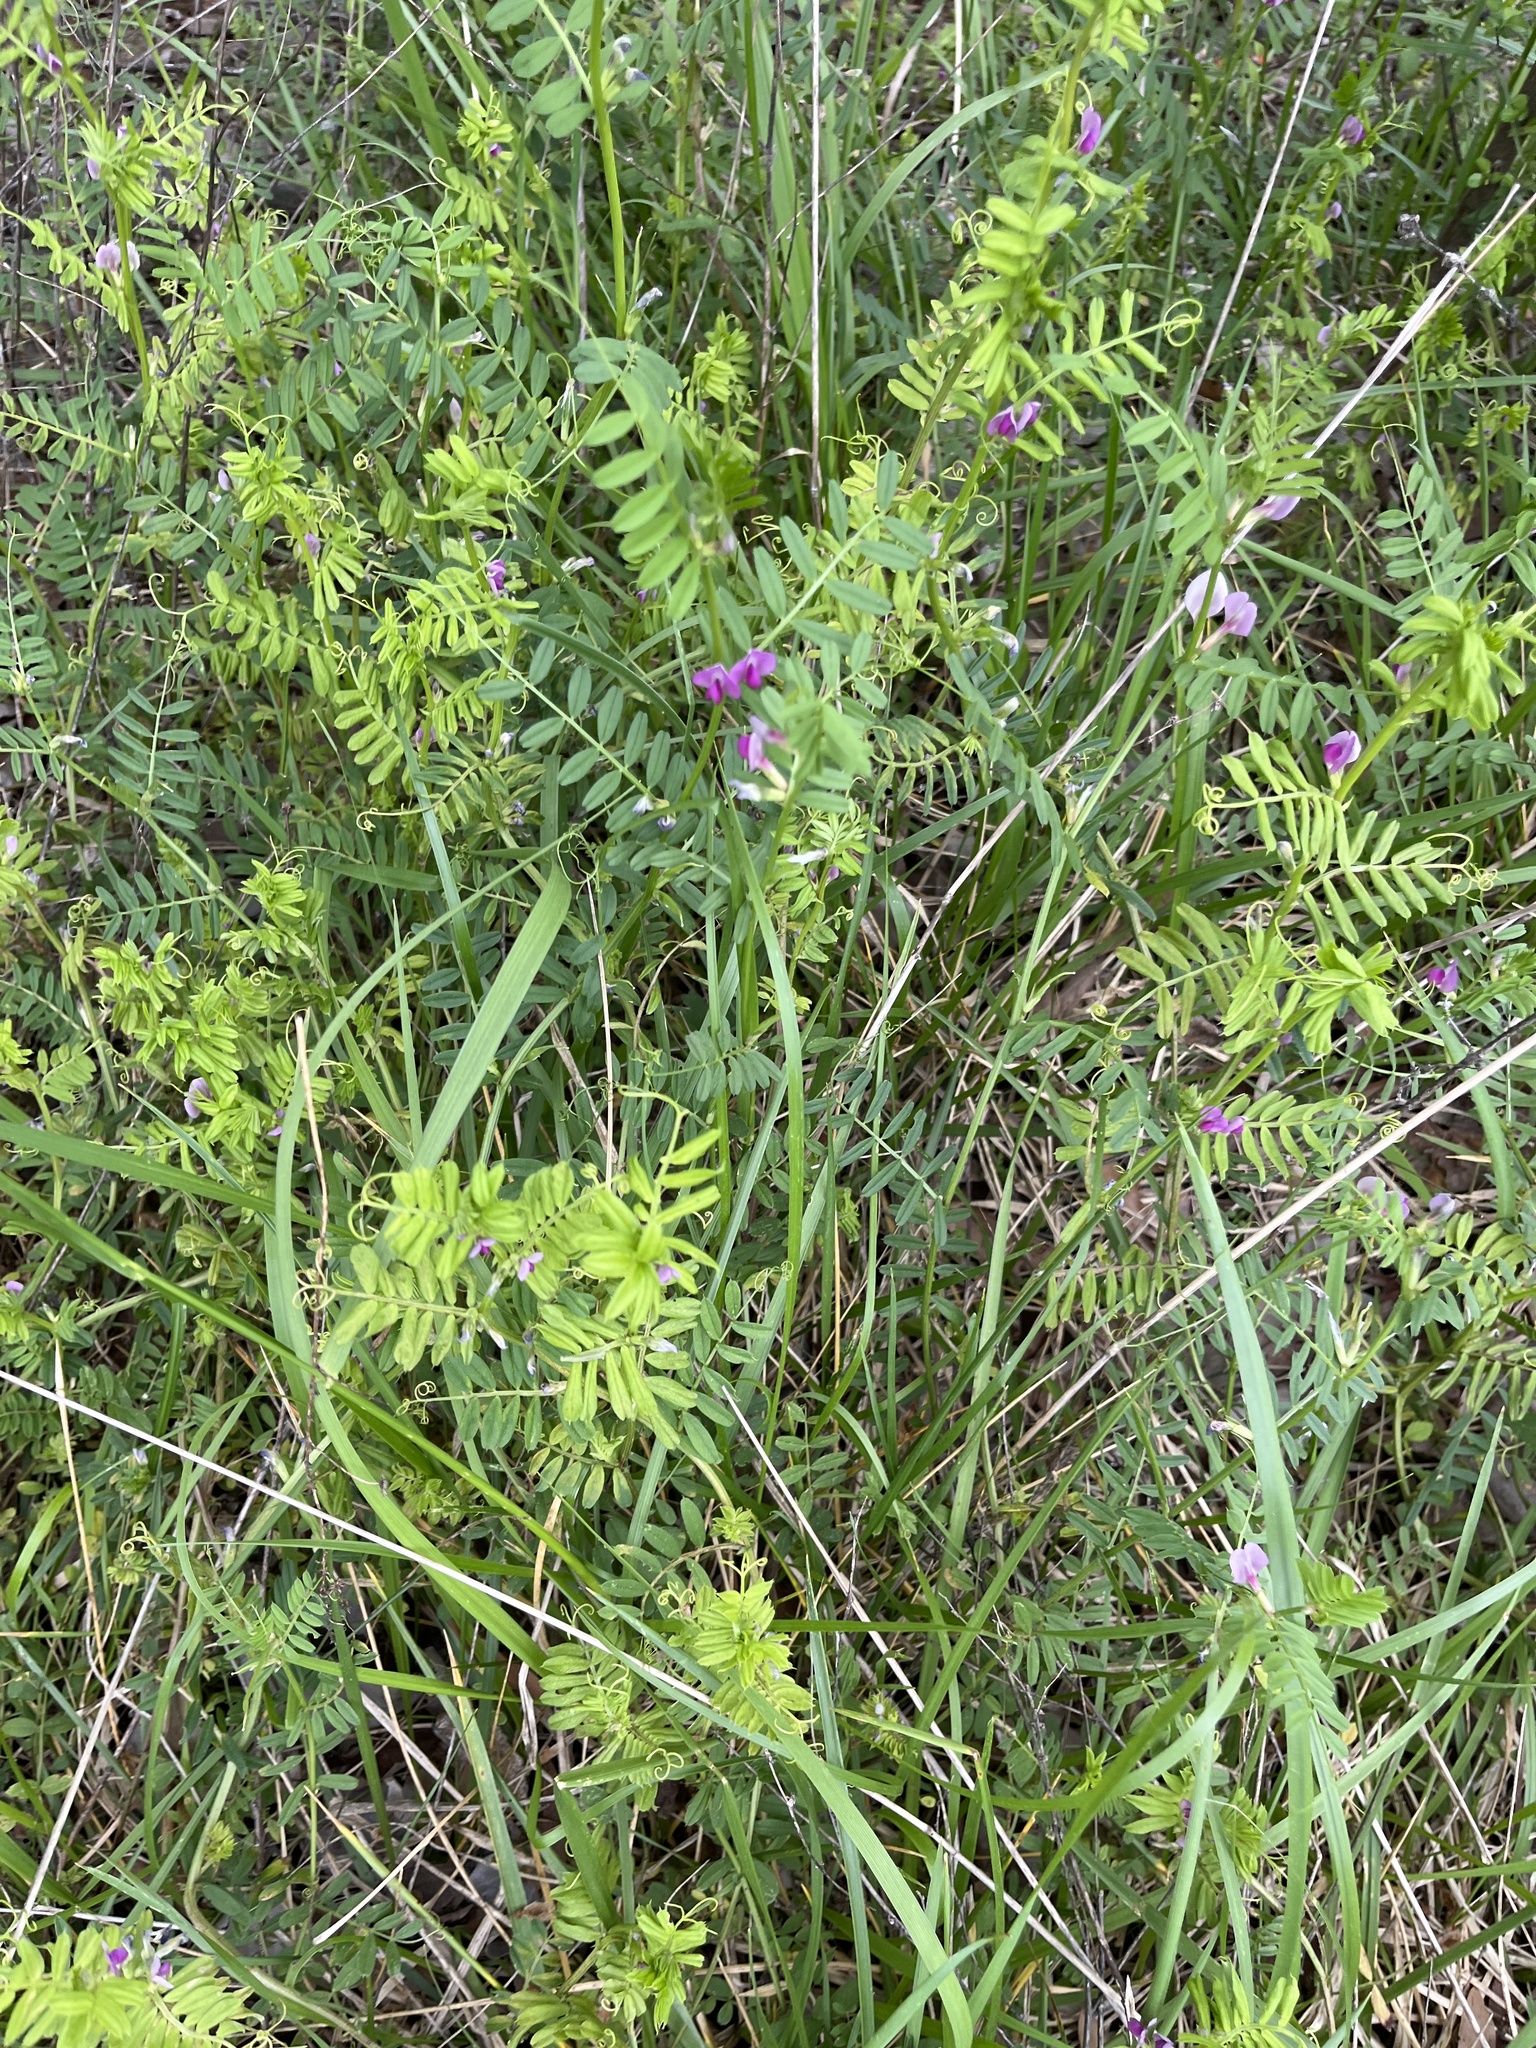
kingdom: Plantae
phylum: Tracheophyta
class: Magnoliopsida
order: Fabales
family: Fabaceae
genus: Vicia
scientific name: Vicia sativa
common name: Garden vetch
